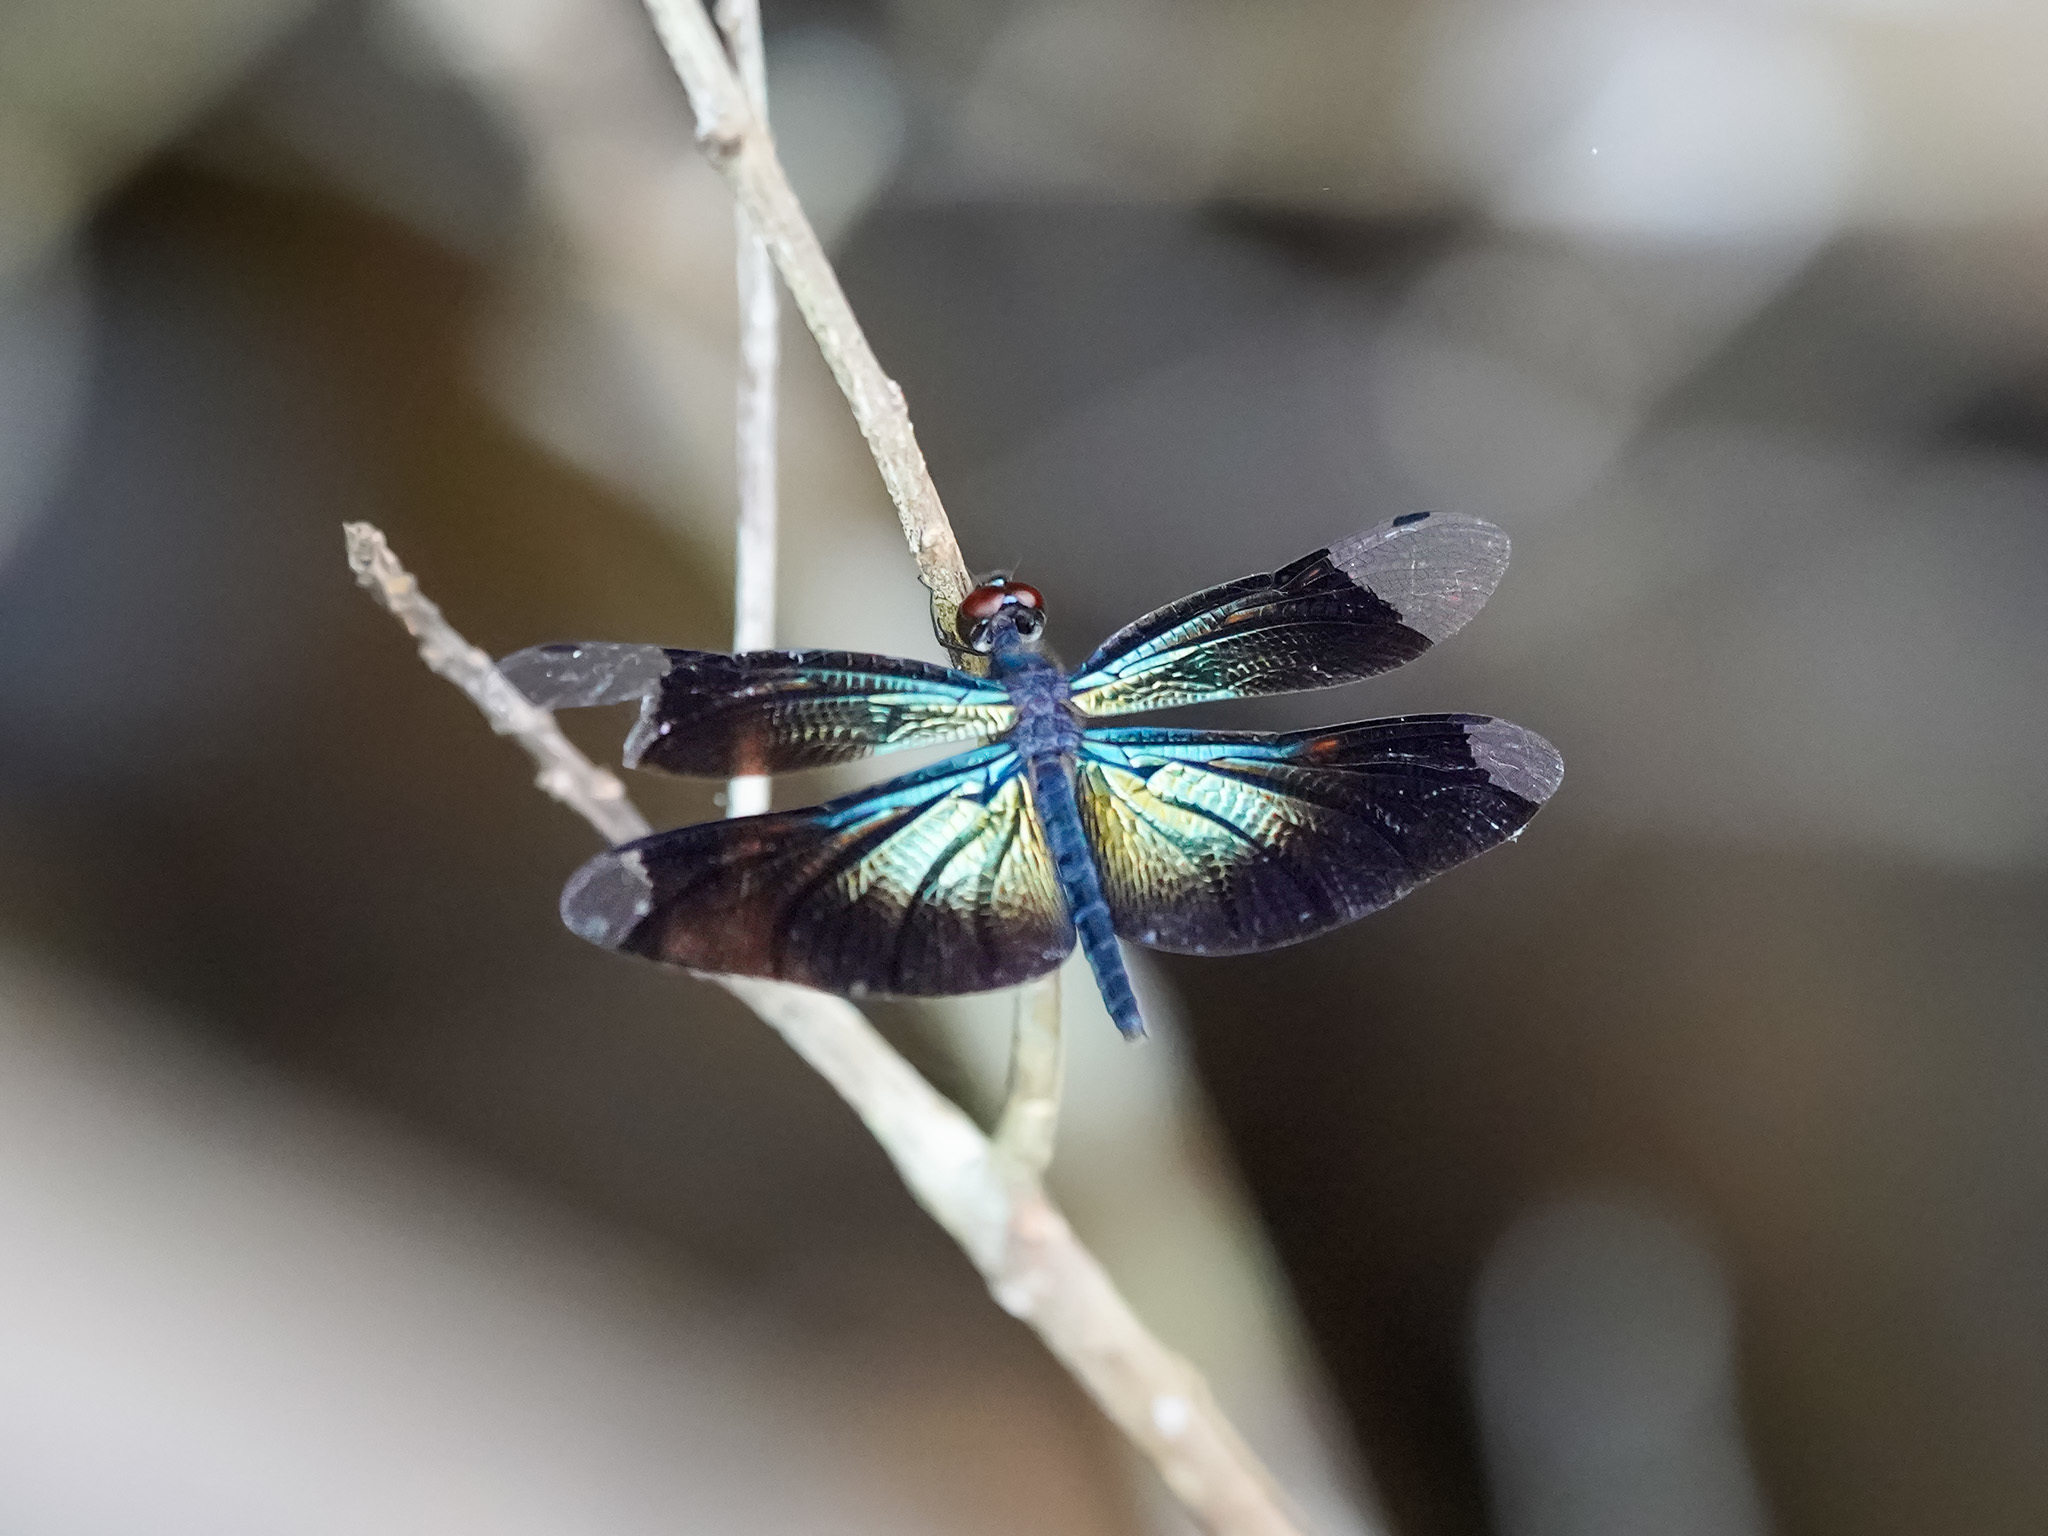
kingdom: Animalia
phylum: Arthropoda
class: Insecta
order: Odonata
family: Libellulidae
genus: Rhyothemis
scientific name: Rhyothemis plutonia
